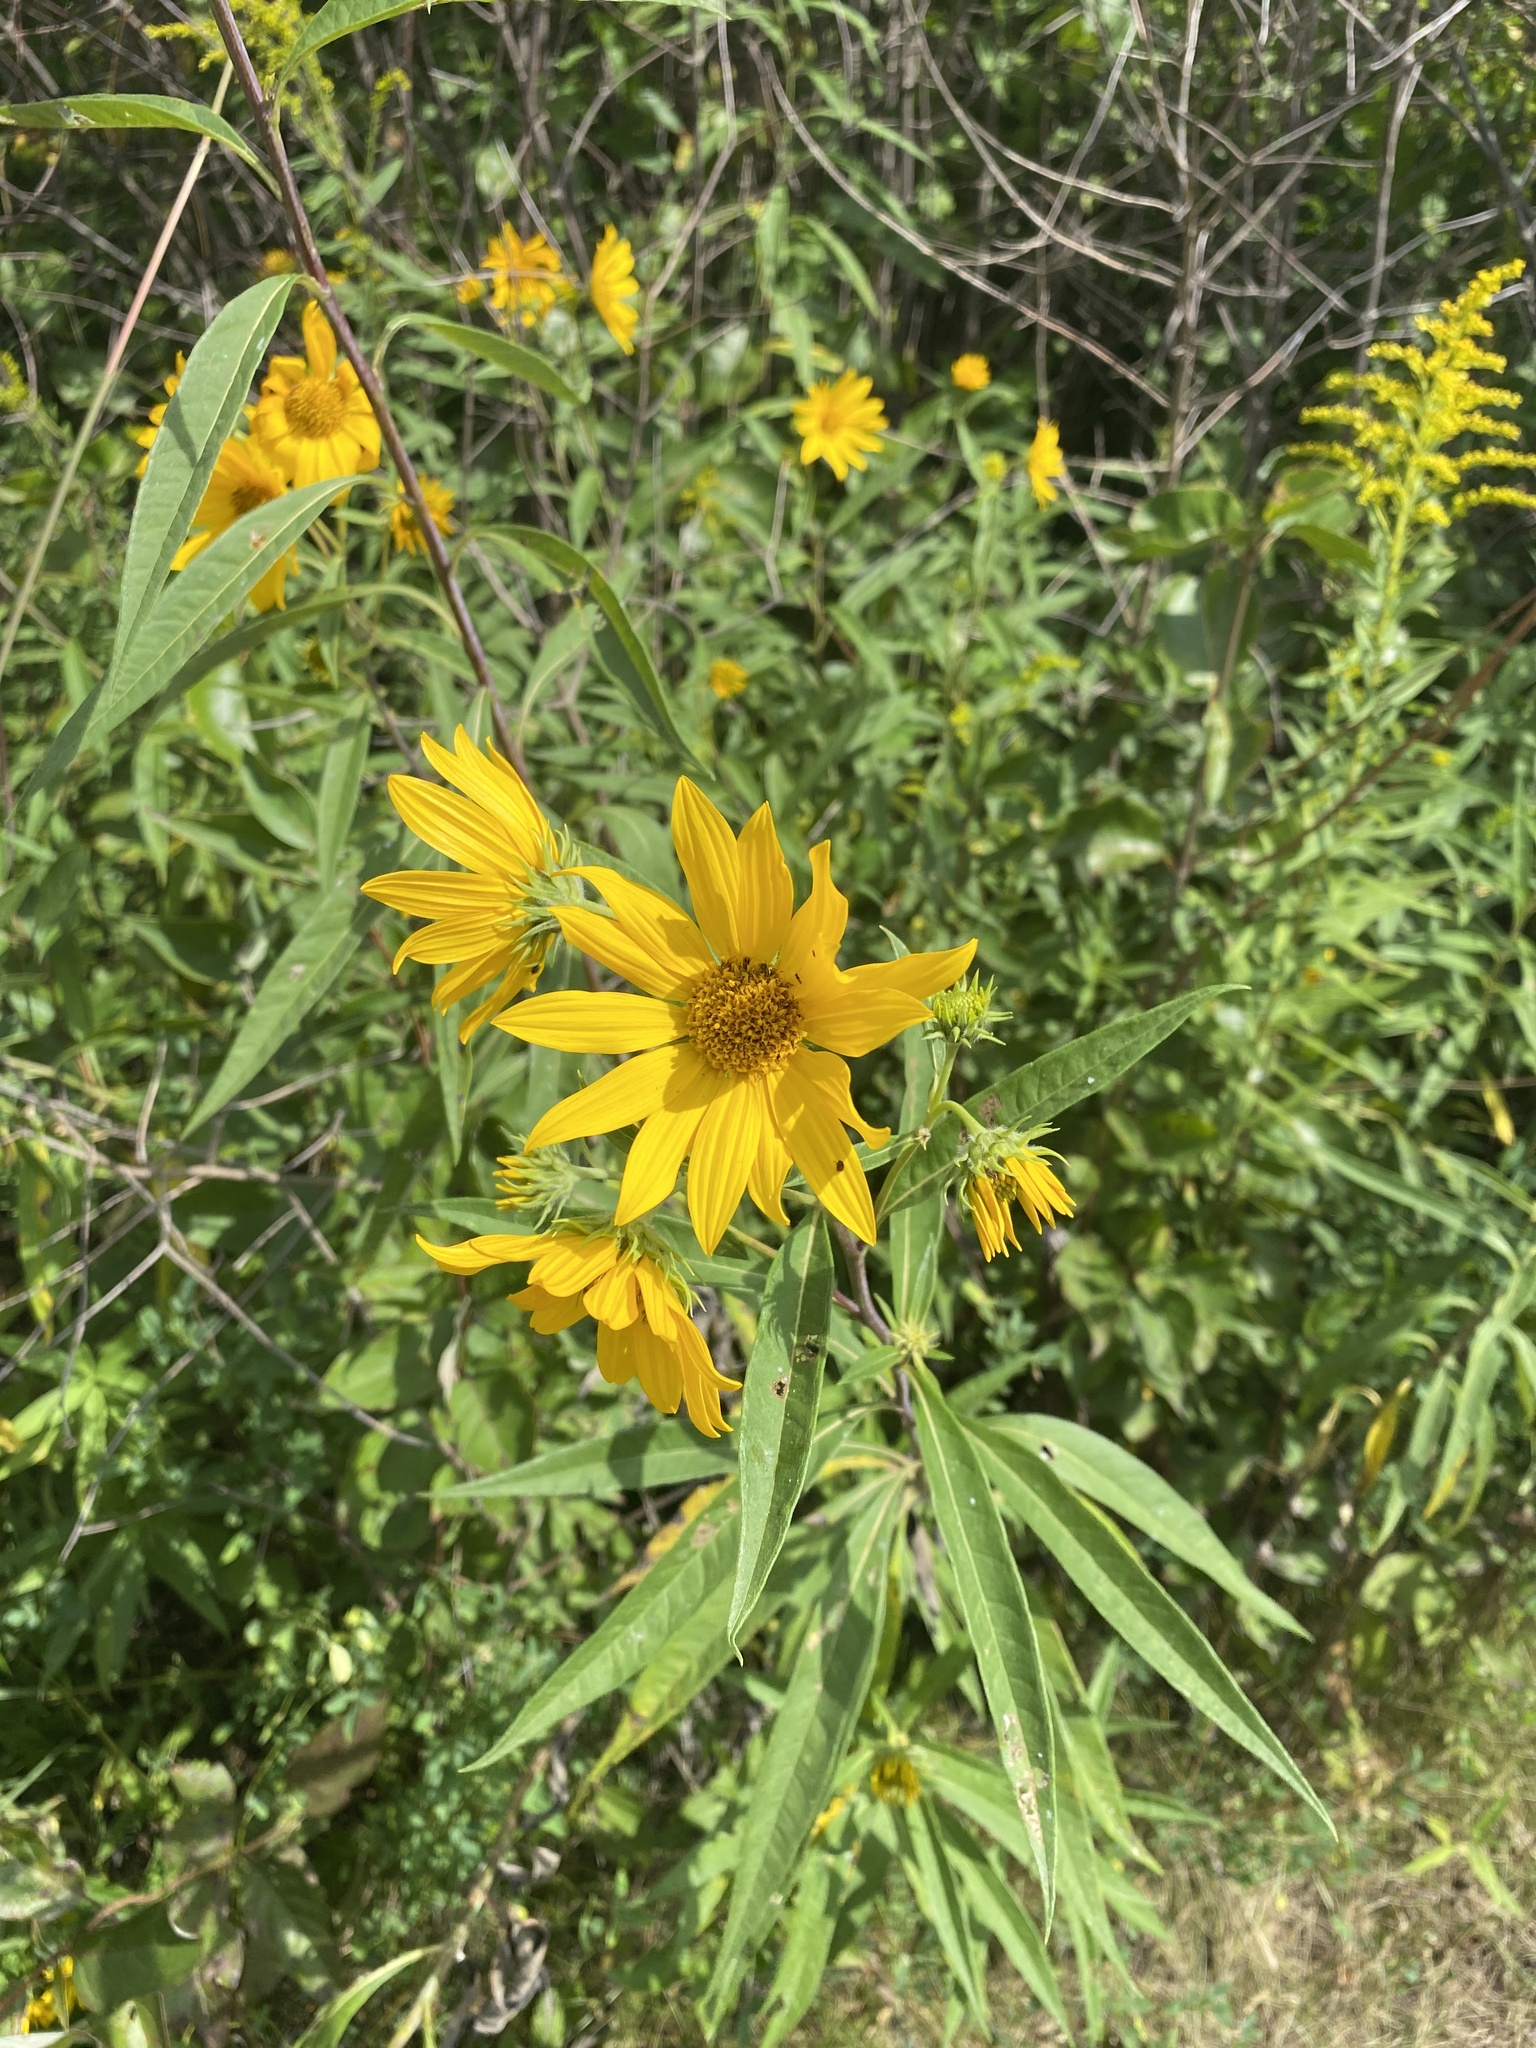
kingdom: Plantae
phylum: Tracheophyta
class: Magnoliopsida
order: Asterales
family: Asteraceae
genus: Helianthus
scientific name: Helianthus giganteus
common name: Giant sunflower
